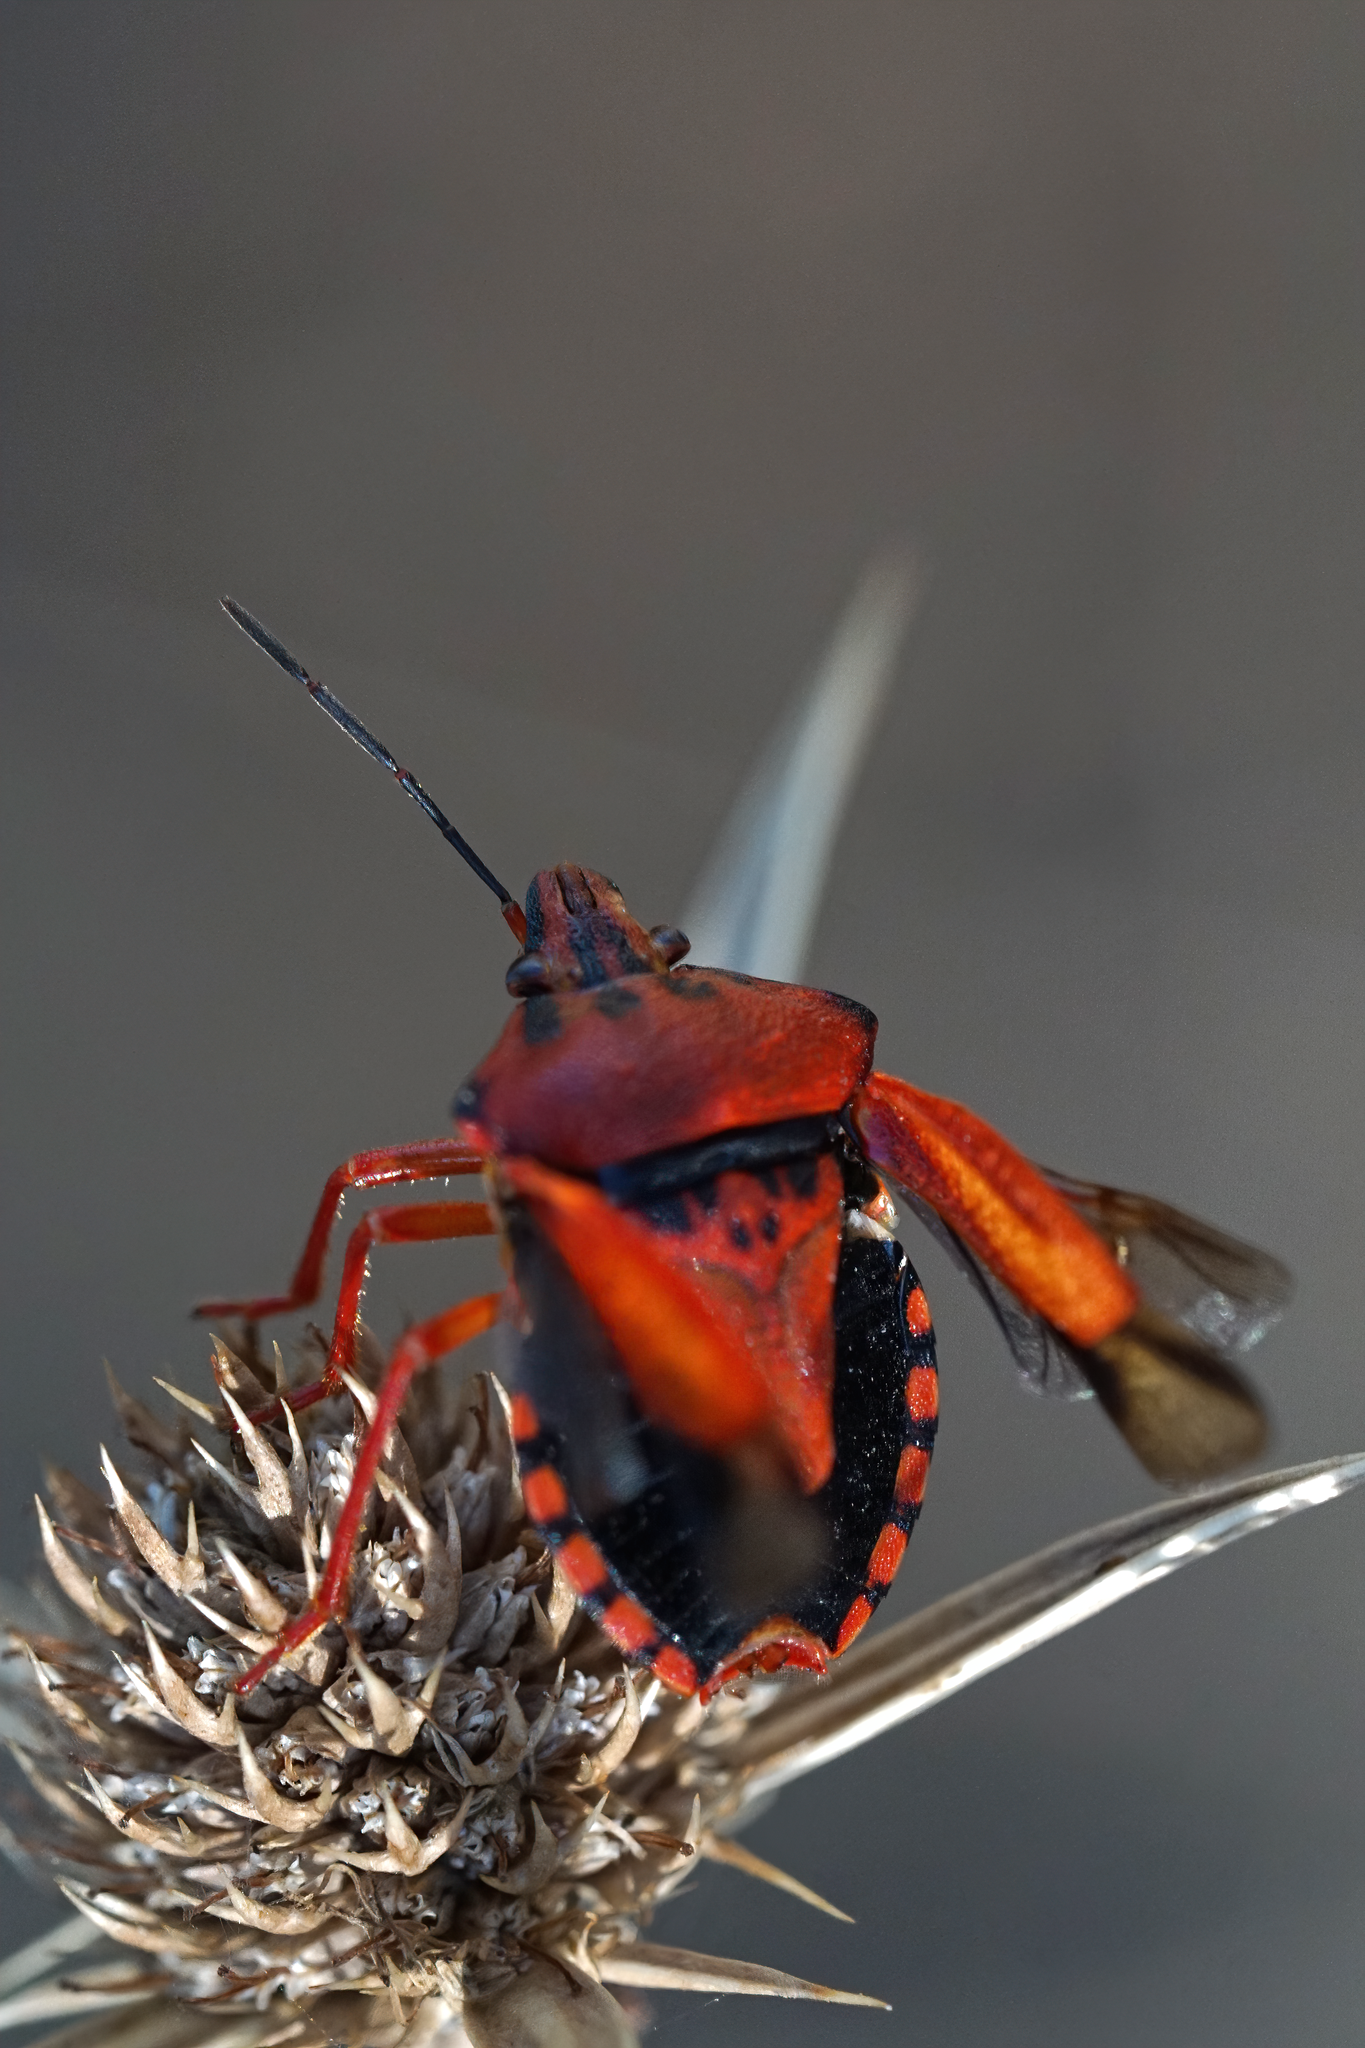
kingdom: Animalia
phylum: Arthropoda
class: Insecta
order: Hemiptera
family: Pentatomidae
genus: Carpocoris
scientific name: Carpocoris mediterraneus
